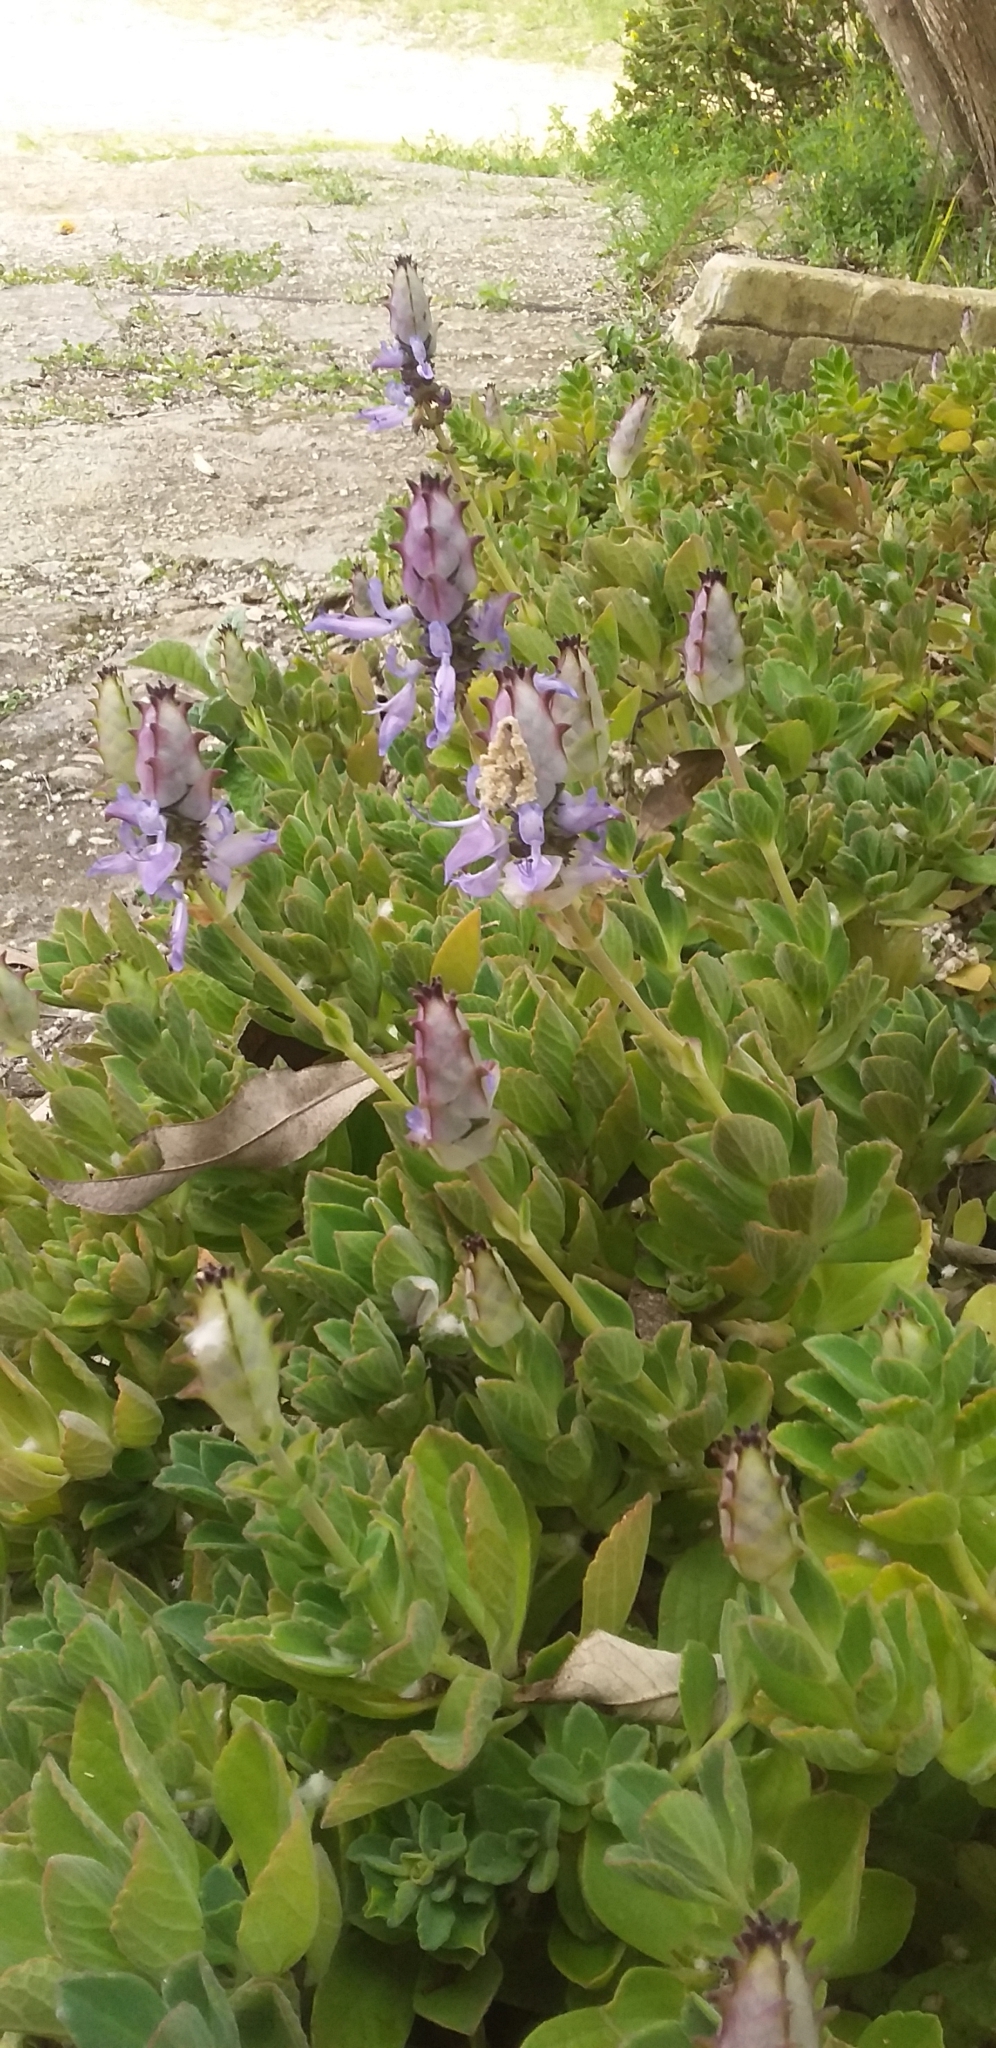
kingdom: Plantae
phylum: Tracheophyta
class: Magnoliopsida
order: Lamiales
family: Lamiaceae
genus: Coleus
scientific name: Coleus neochilus
